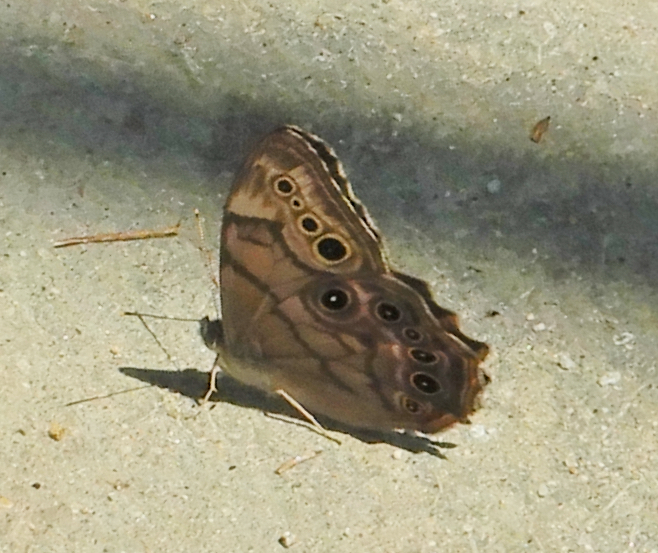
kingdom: Animalia
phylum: Arthropoda
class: Insecta
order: Lepidoptera
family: Nymphalidae
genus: Lethe
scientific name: Lethe anthedon
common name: Northern pearly-eye
